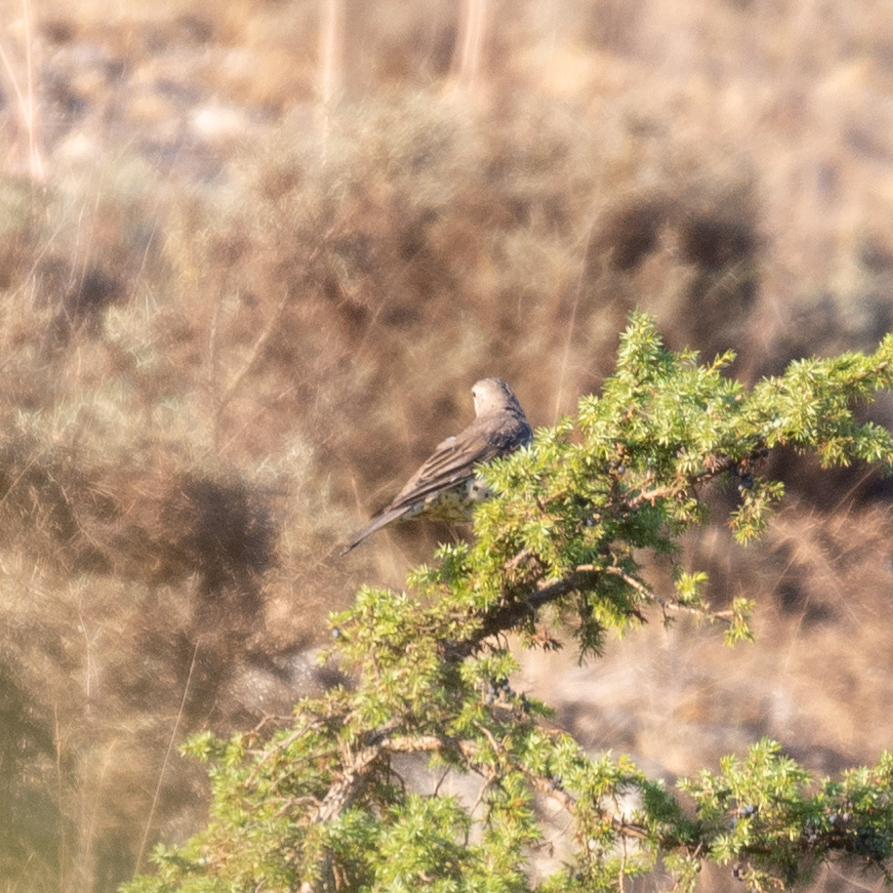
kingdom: Animalia
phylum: Chordata
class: Aves
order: Passeriformes
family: Turdidae
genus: Turdus
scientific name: Turdus viscivorus
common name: Mistle thrush
